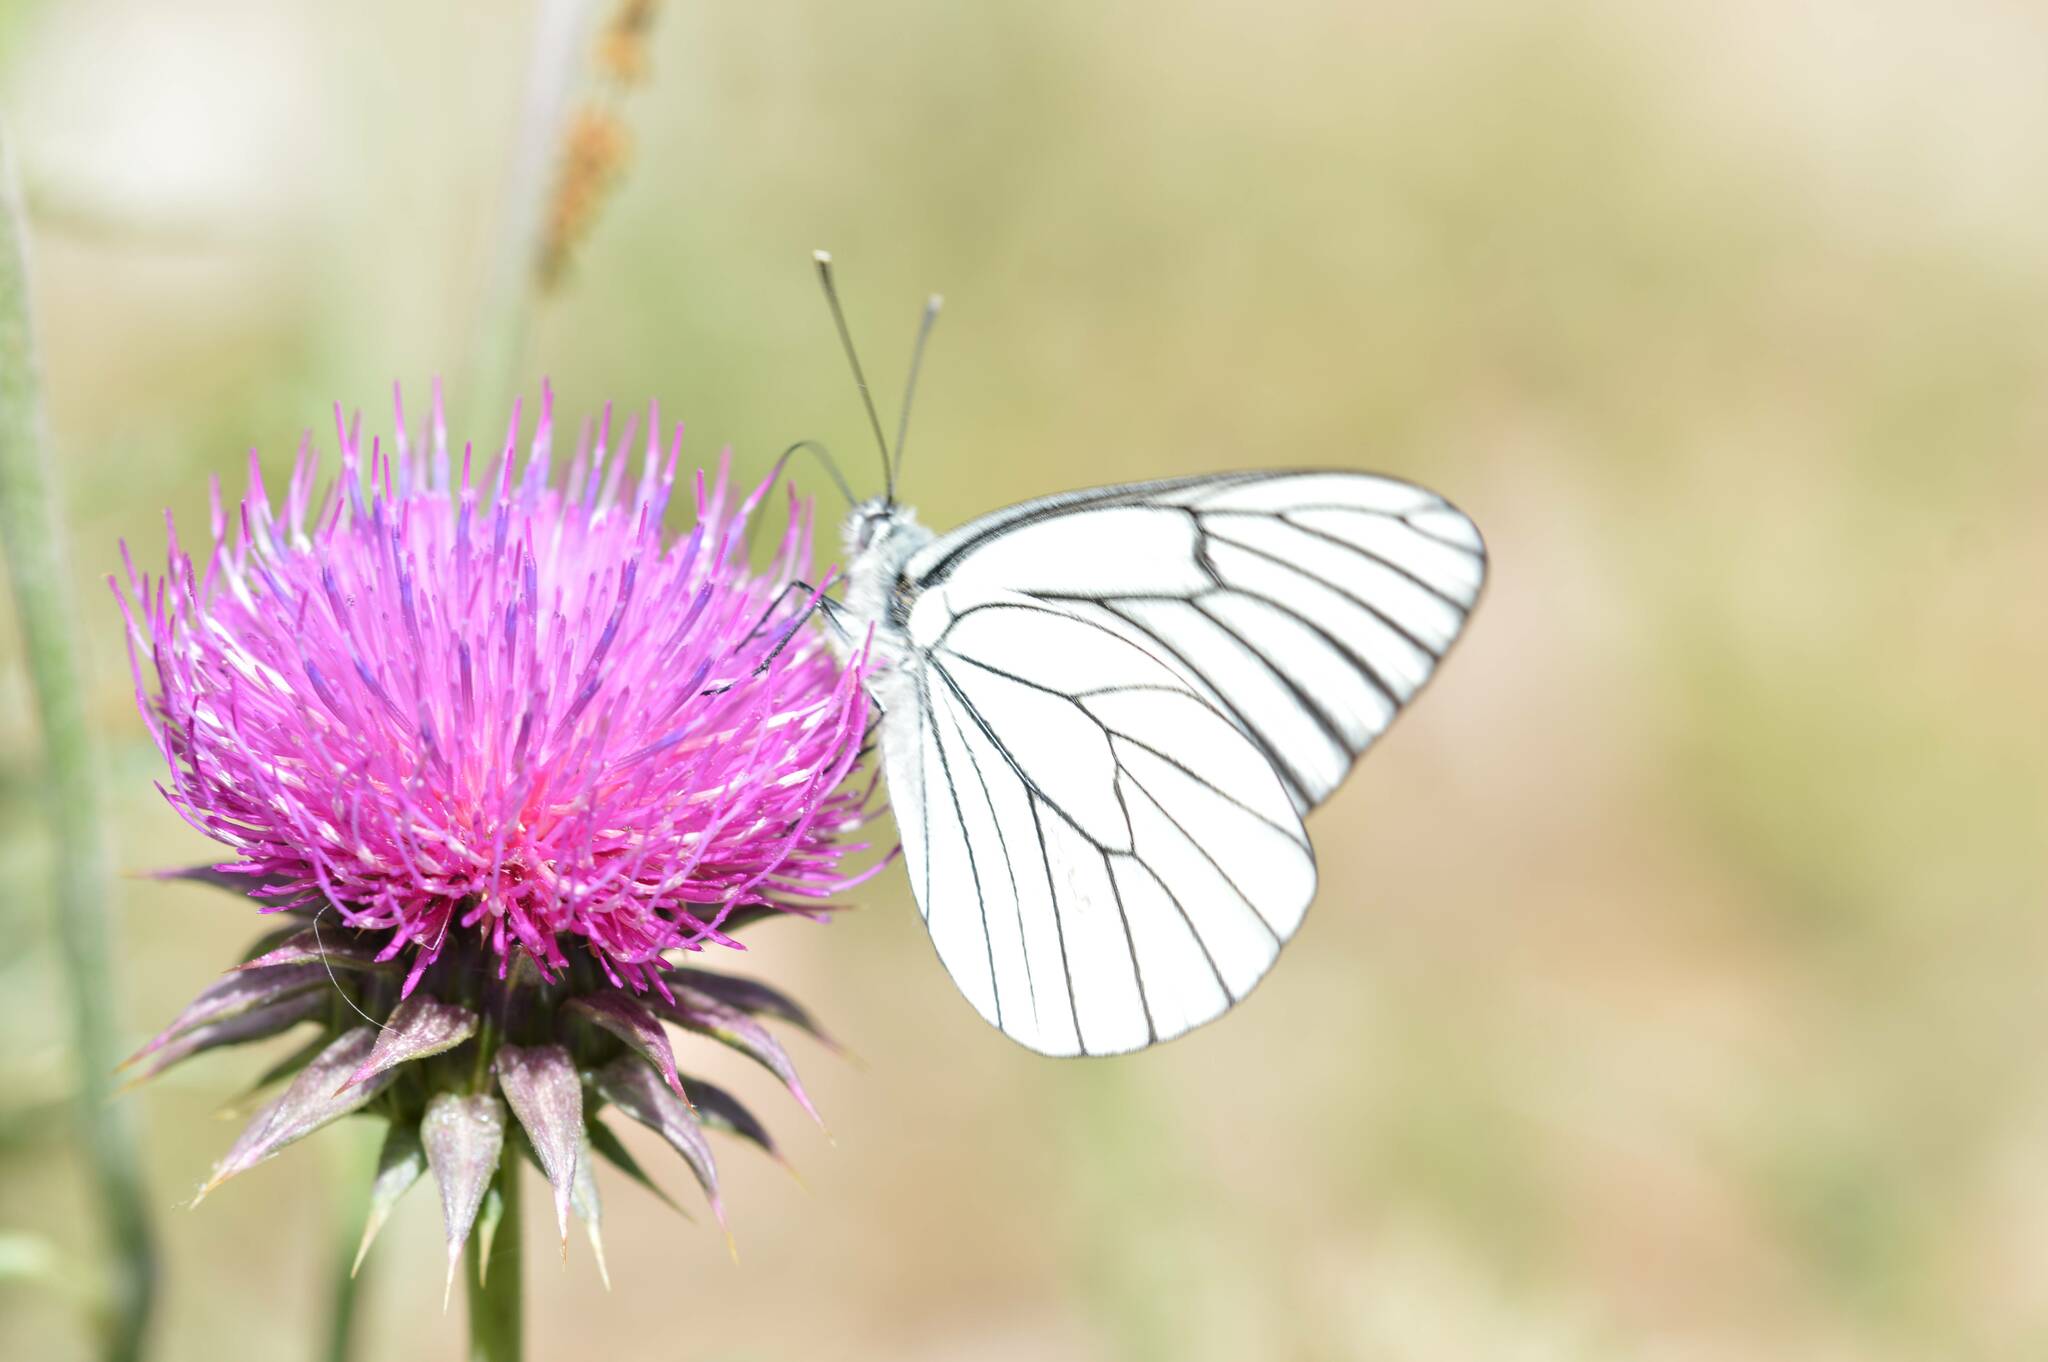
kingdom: Animalia
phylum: Arthropoda
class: Insecta
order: Lepidoptera
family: Pieridae
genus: Aporia
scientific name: Aporia crataegi
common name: Black-veined white
